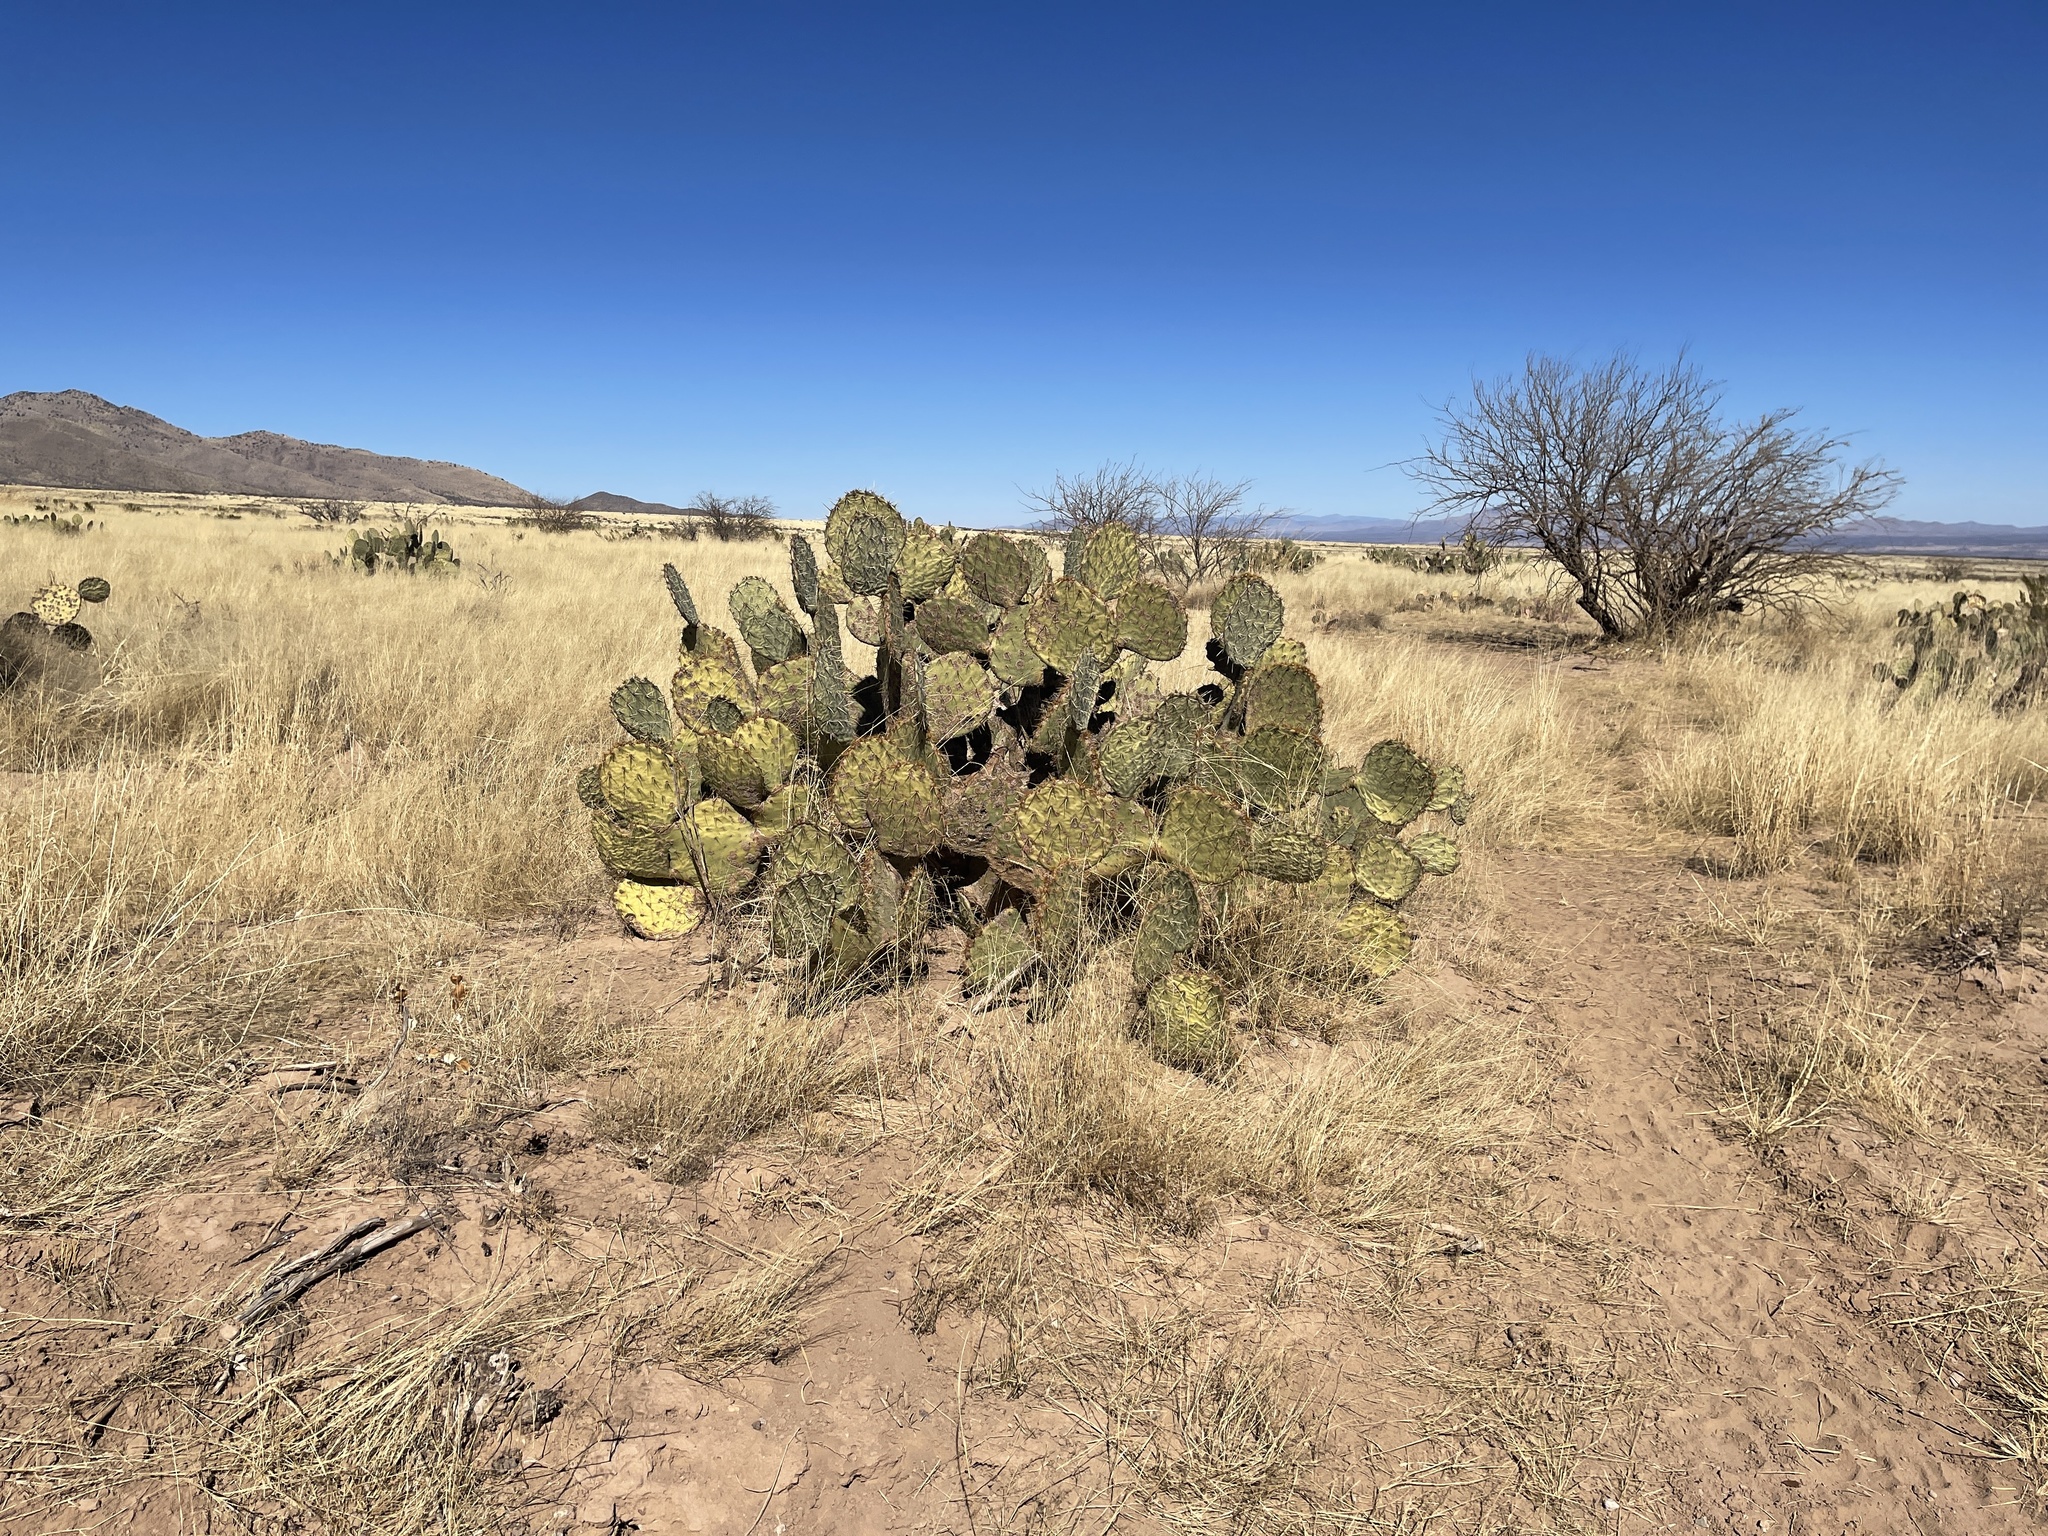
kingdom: Plantae
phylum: Tracheophyta
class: Magnoliopsida
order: Caryophyllales
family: Cactaceae
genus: Opuntia
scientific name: Opuntia engelmannii
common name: Cactus-apple
